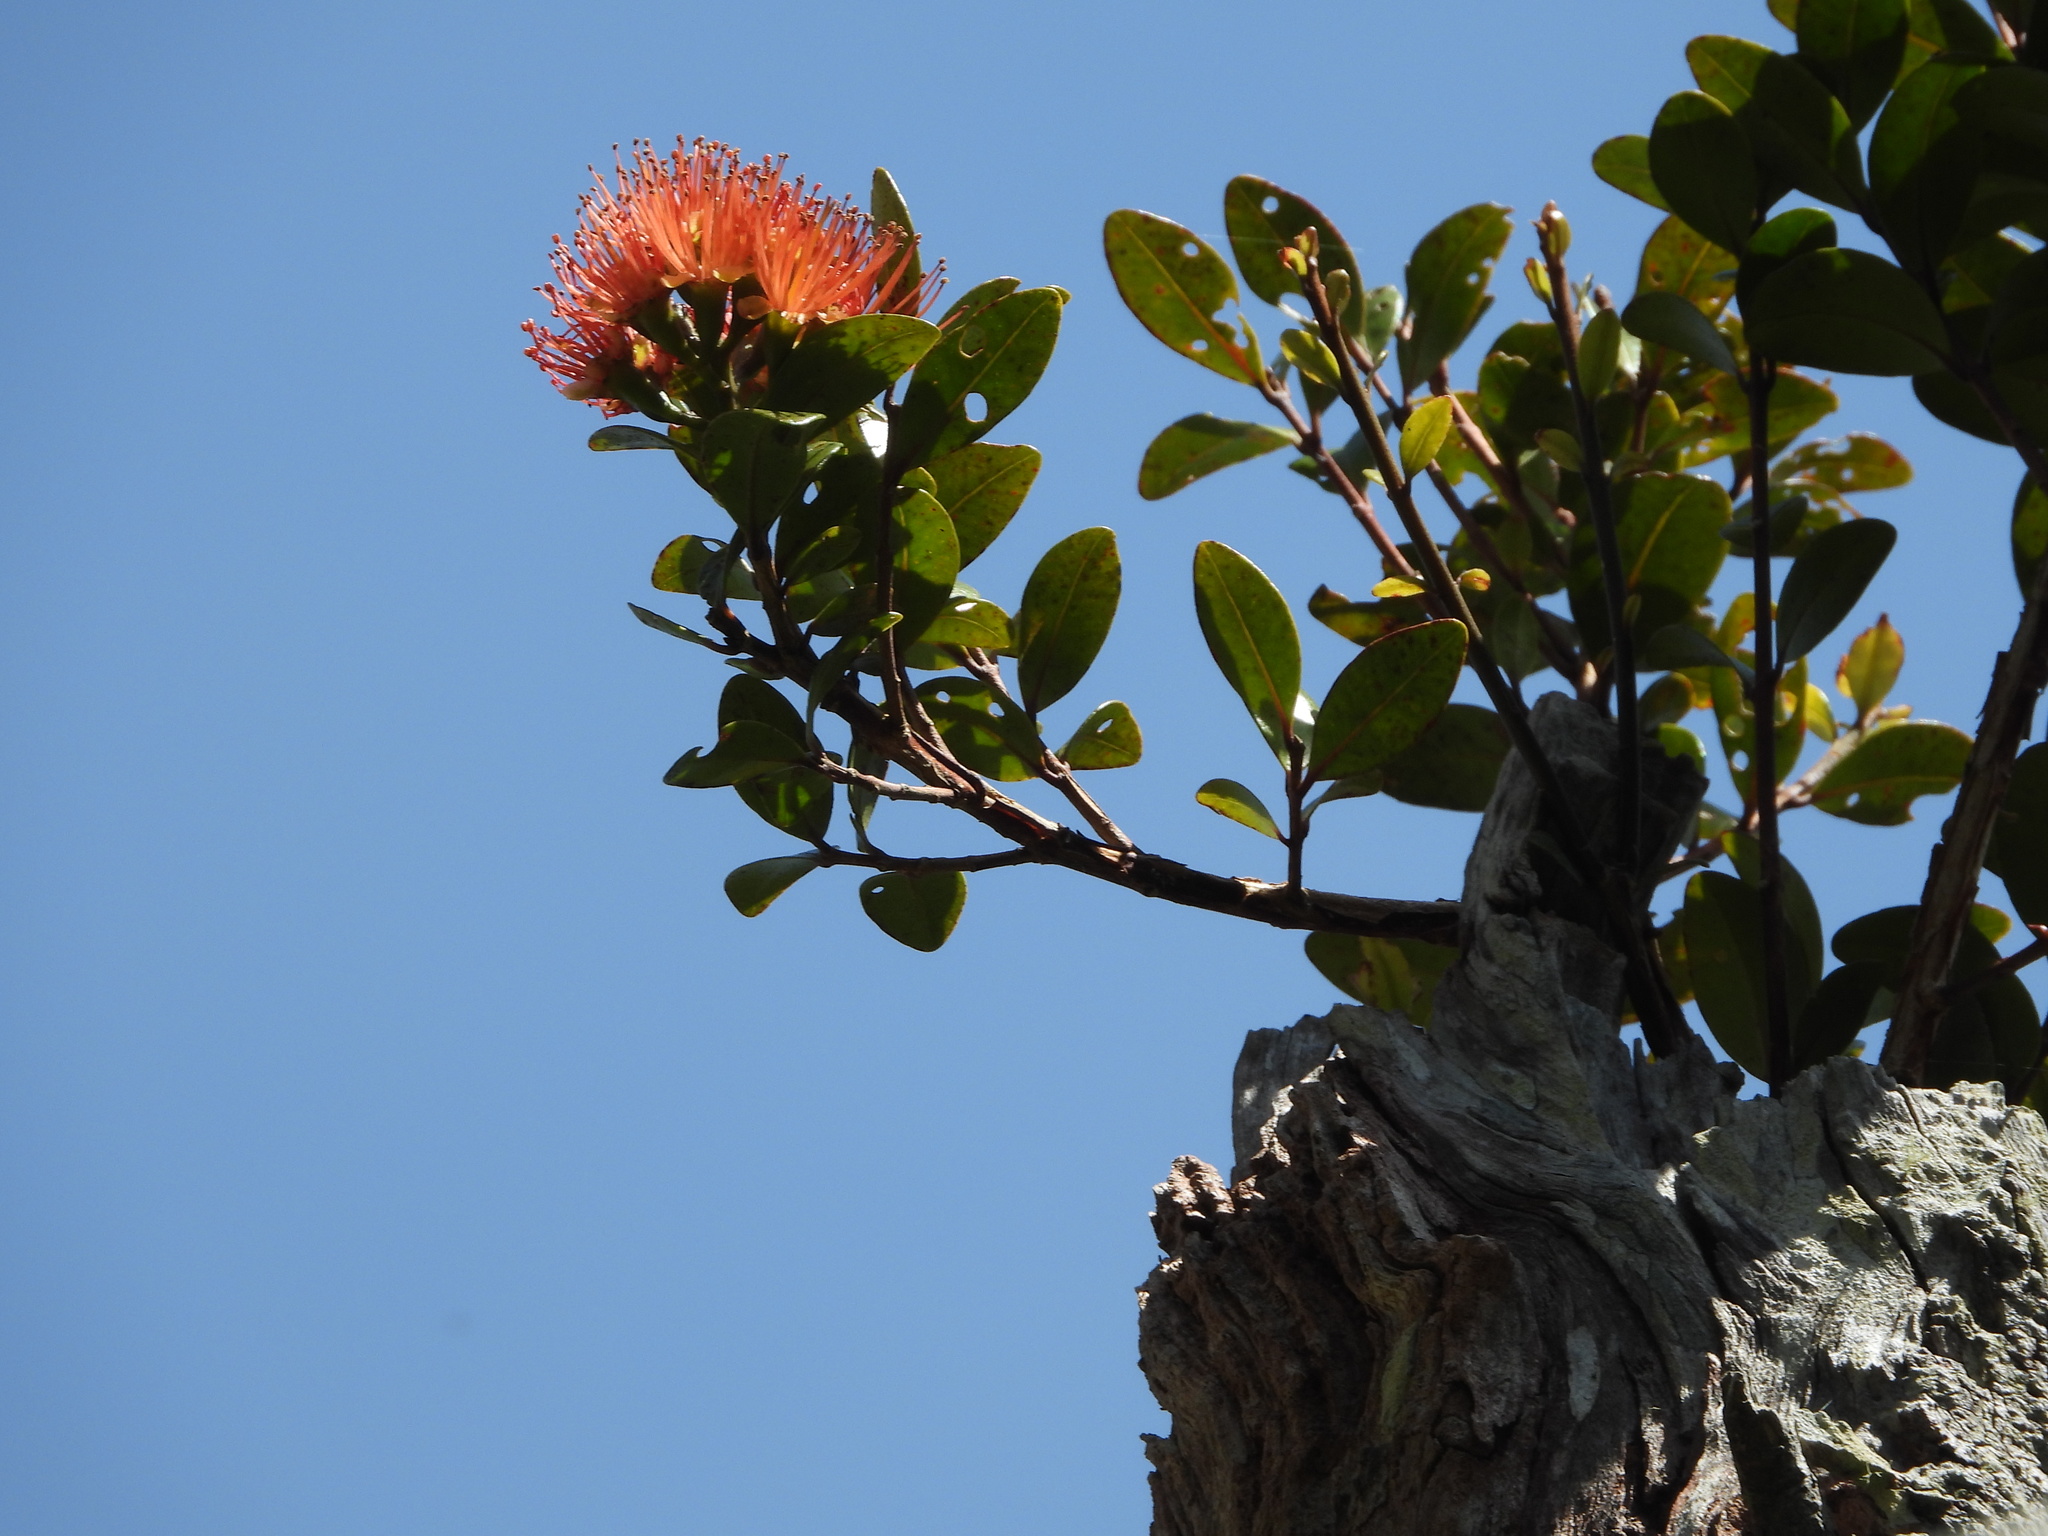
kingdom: Plantae
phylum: Tracheophyta
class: Magnoliopsida
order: Myrtales
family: Myrtaceae
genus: Metrosideros
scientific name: Metrosideros fulgens
